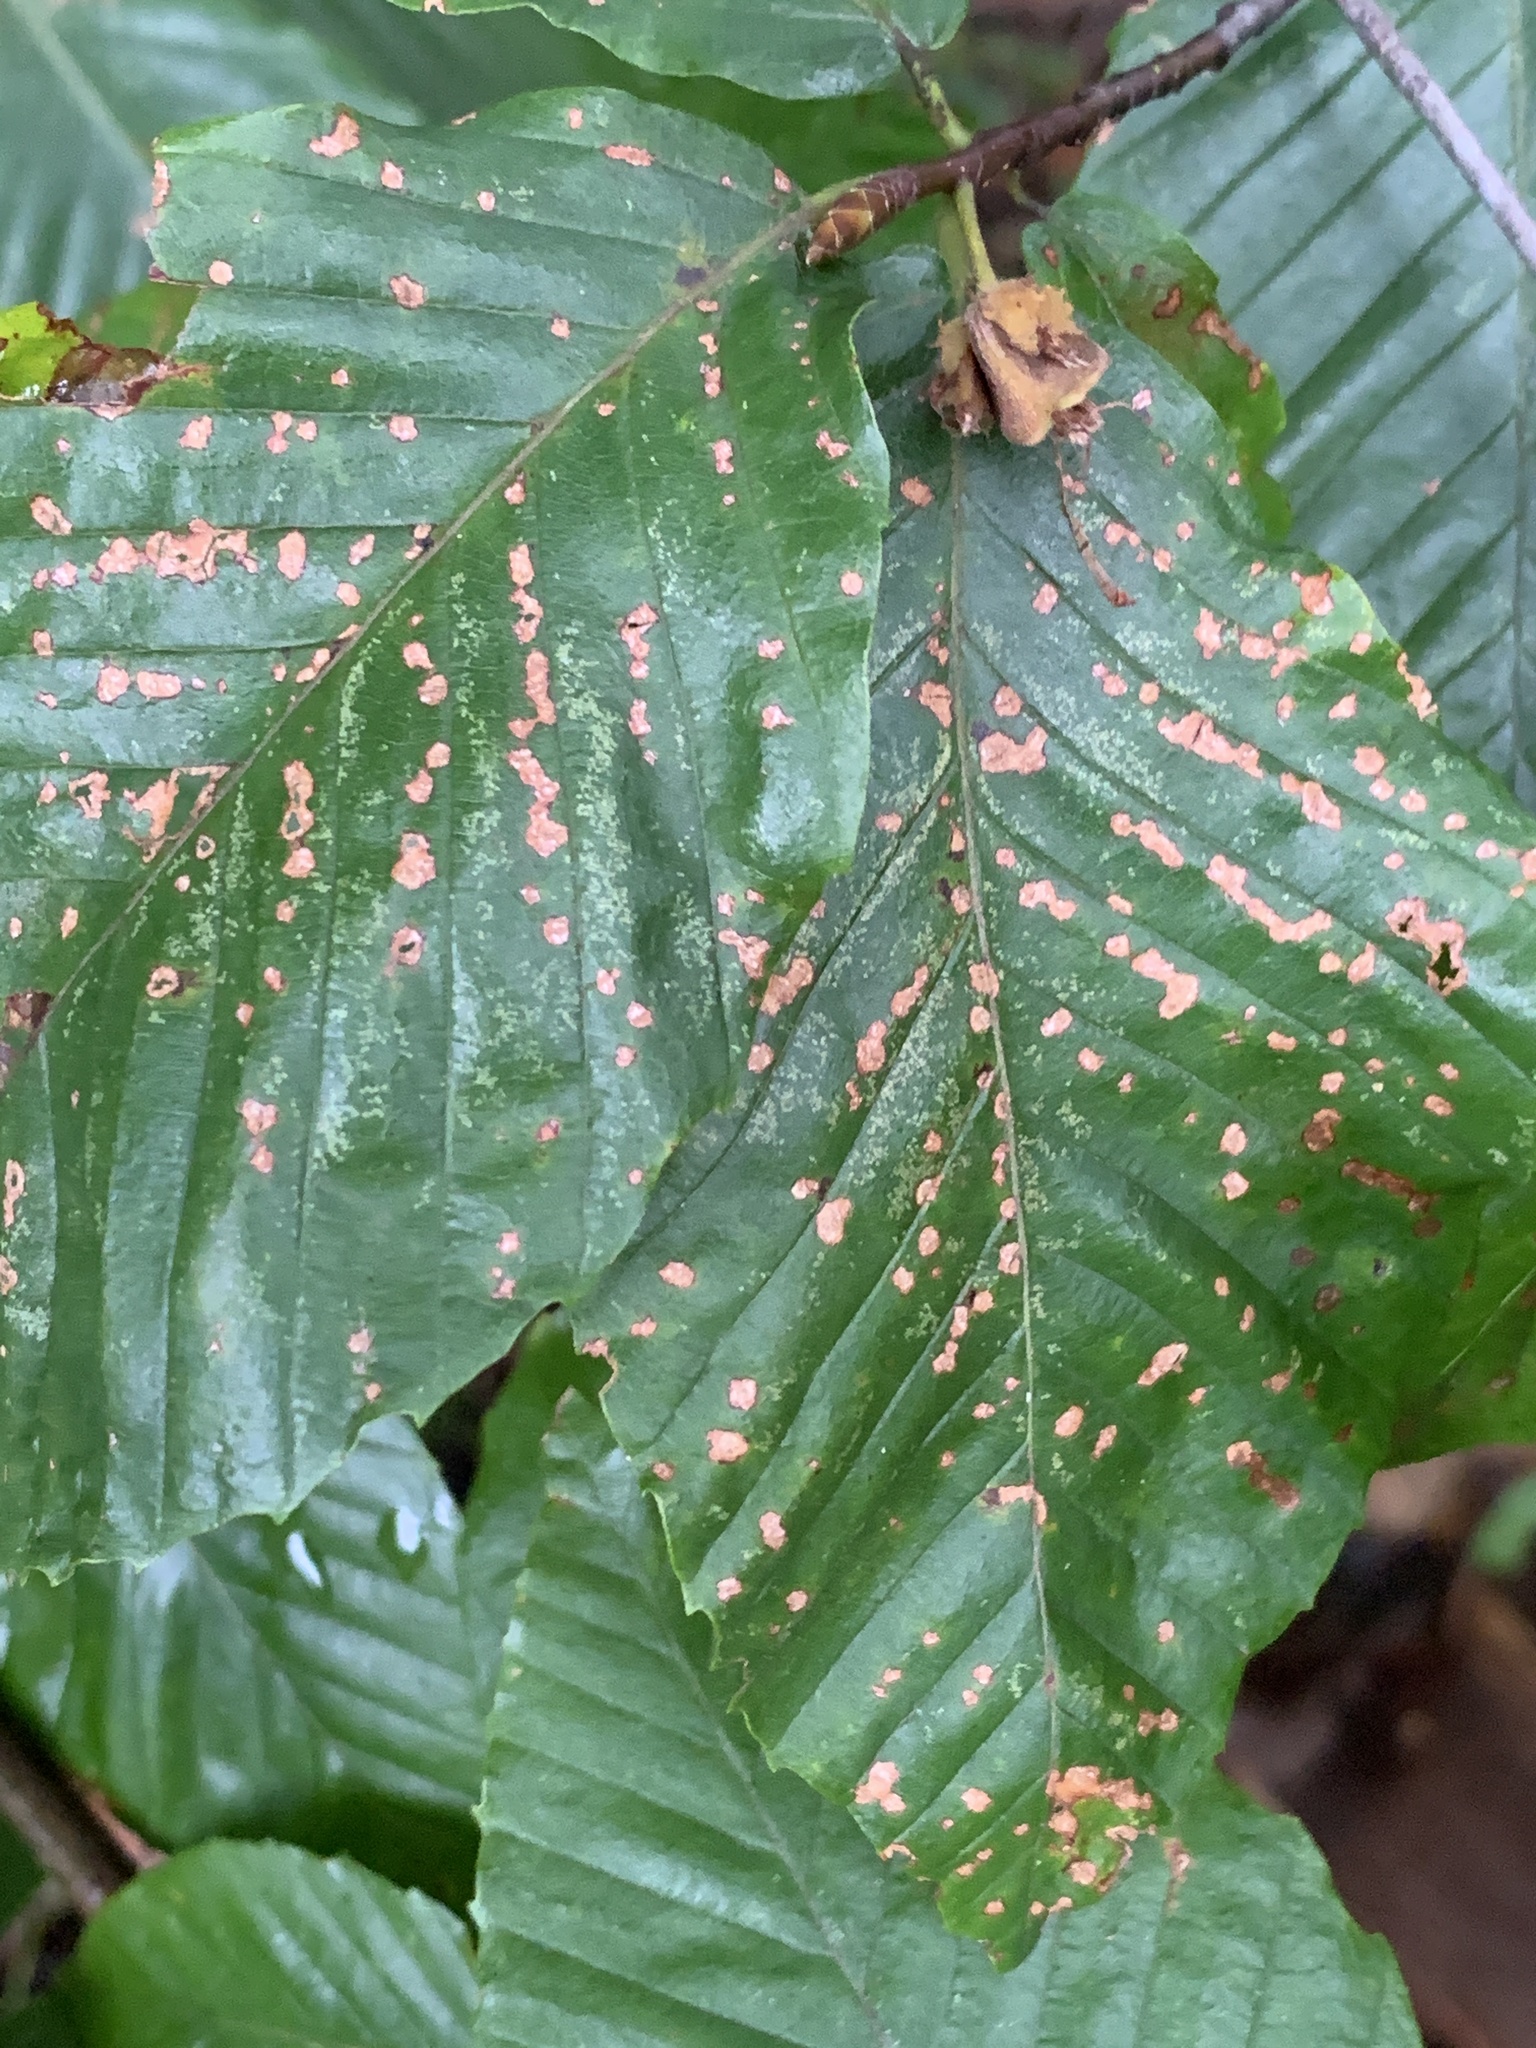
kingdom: Animalia
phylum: Arthropoda
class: Arachnida
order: Trombidiformes
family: Eriophyidae
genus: Acalitus
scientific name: Acalitus
